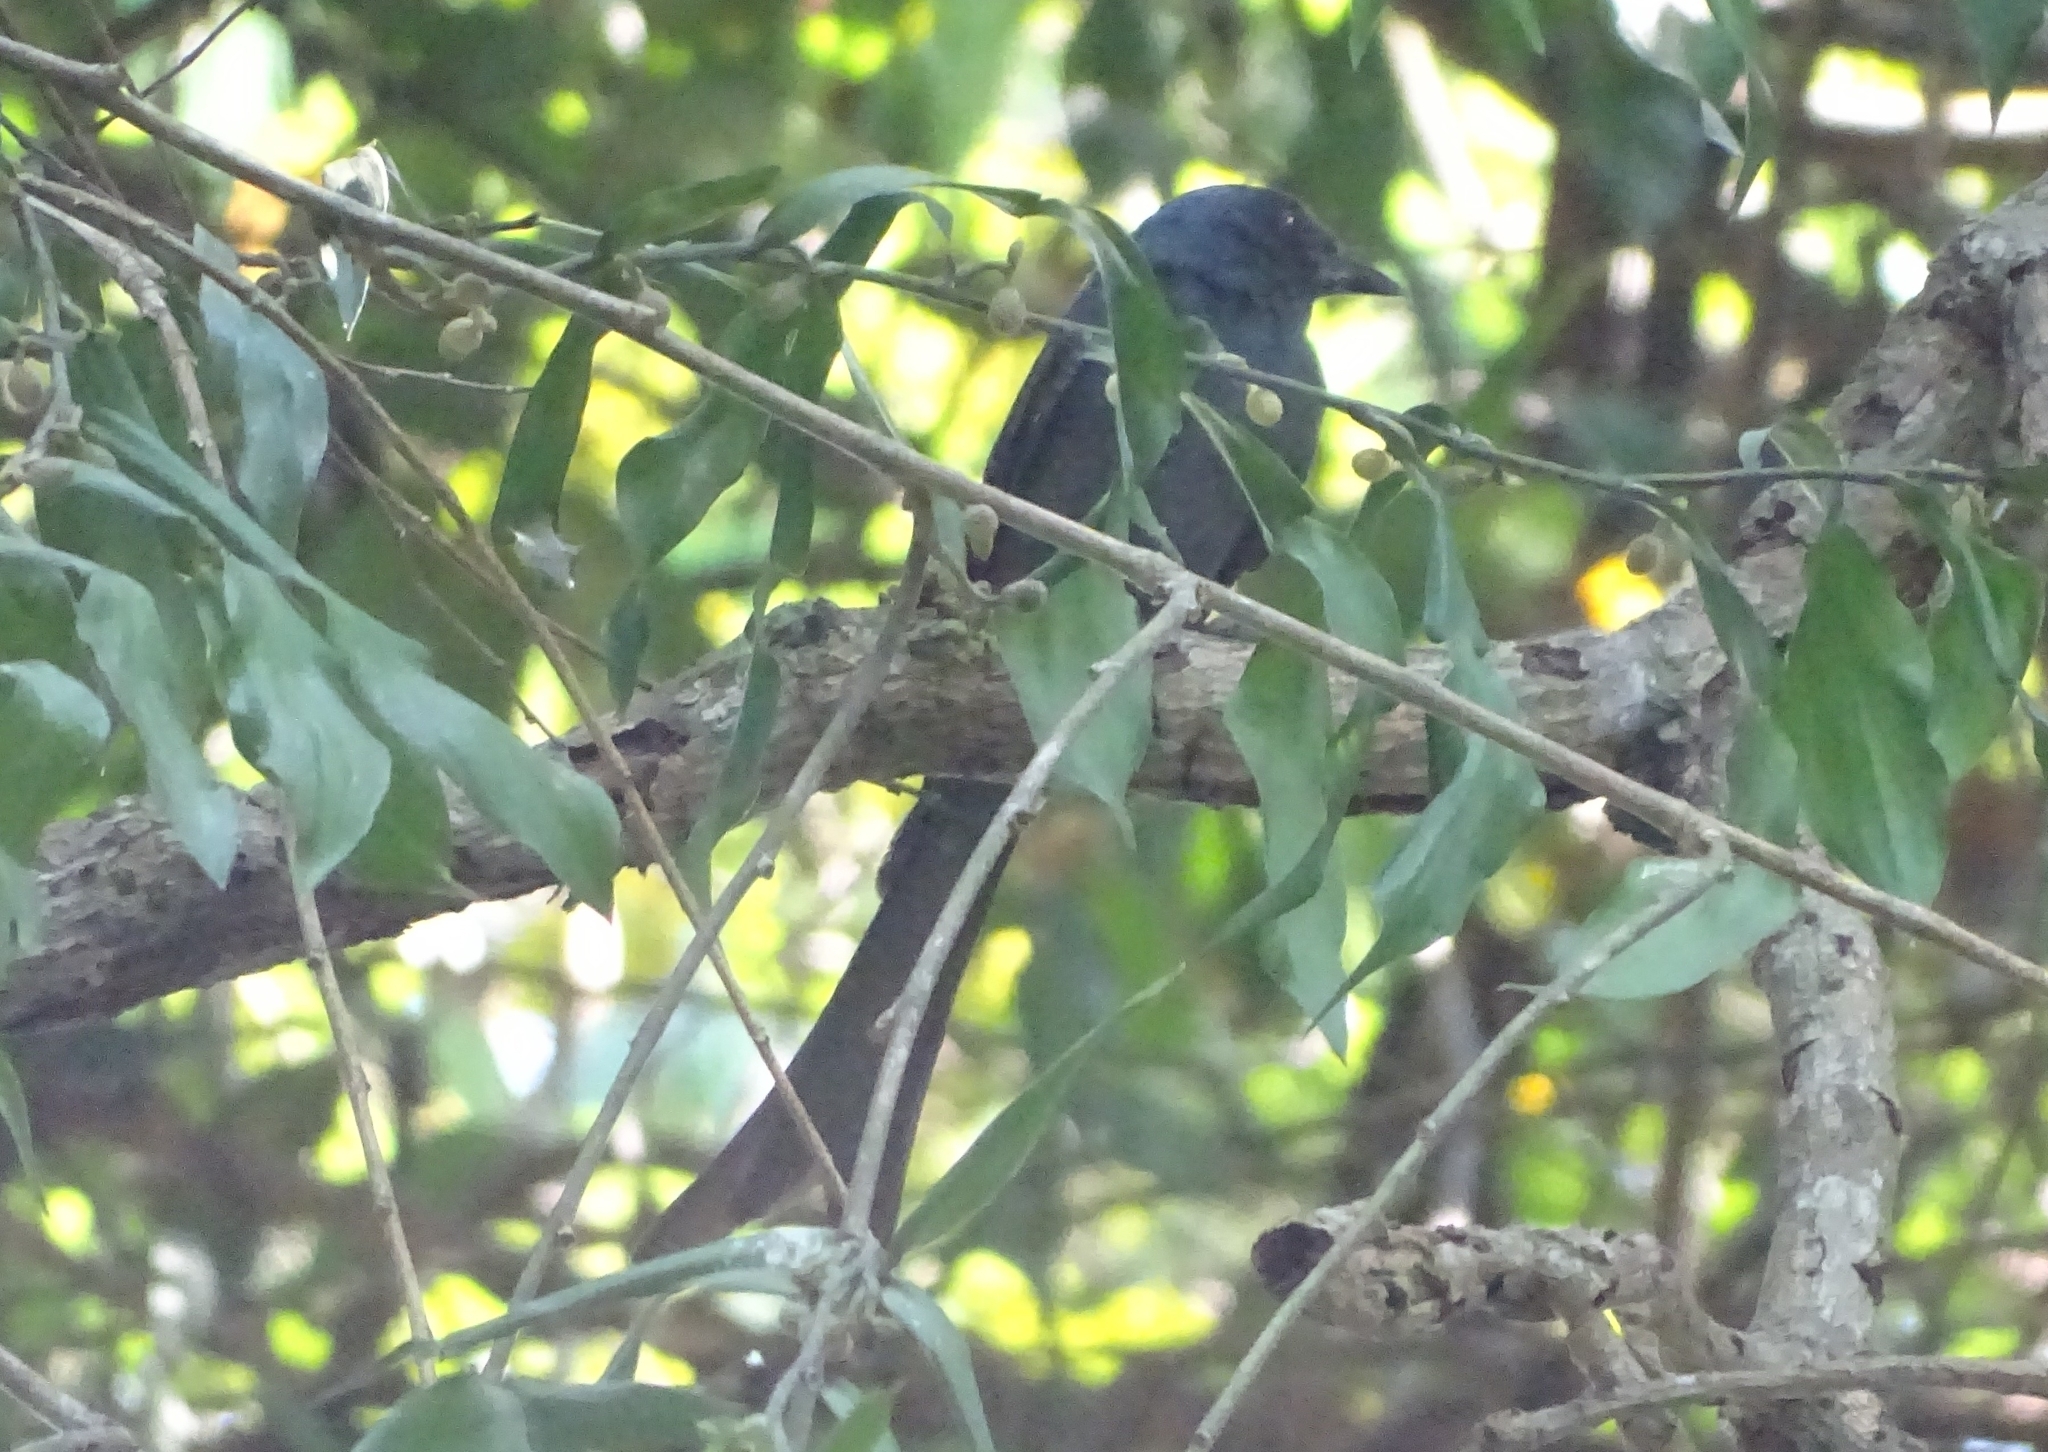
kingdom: Animalia
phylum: Chordata
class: Aves
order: Passeriformes
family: Dicruridae
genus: Dicrurus
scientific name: Dicrurus leucophaeus
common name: Ashy drongo
